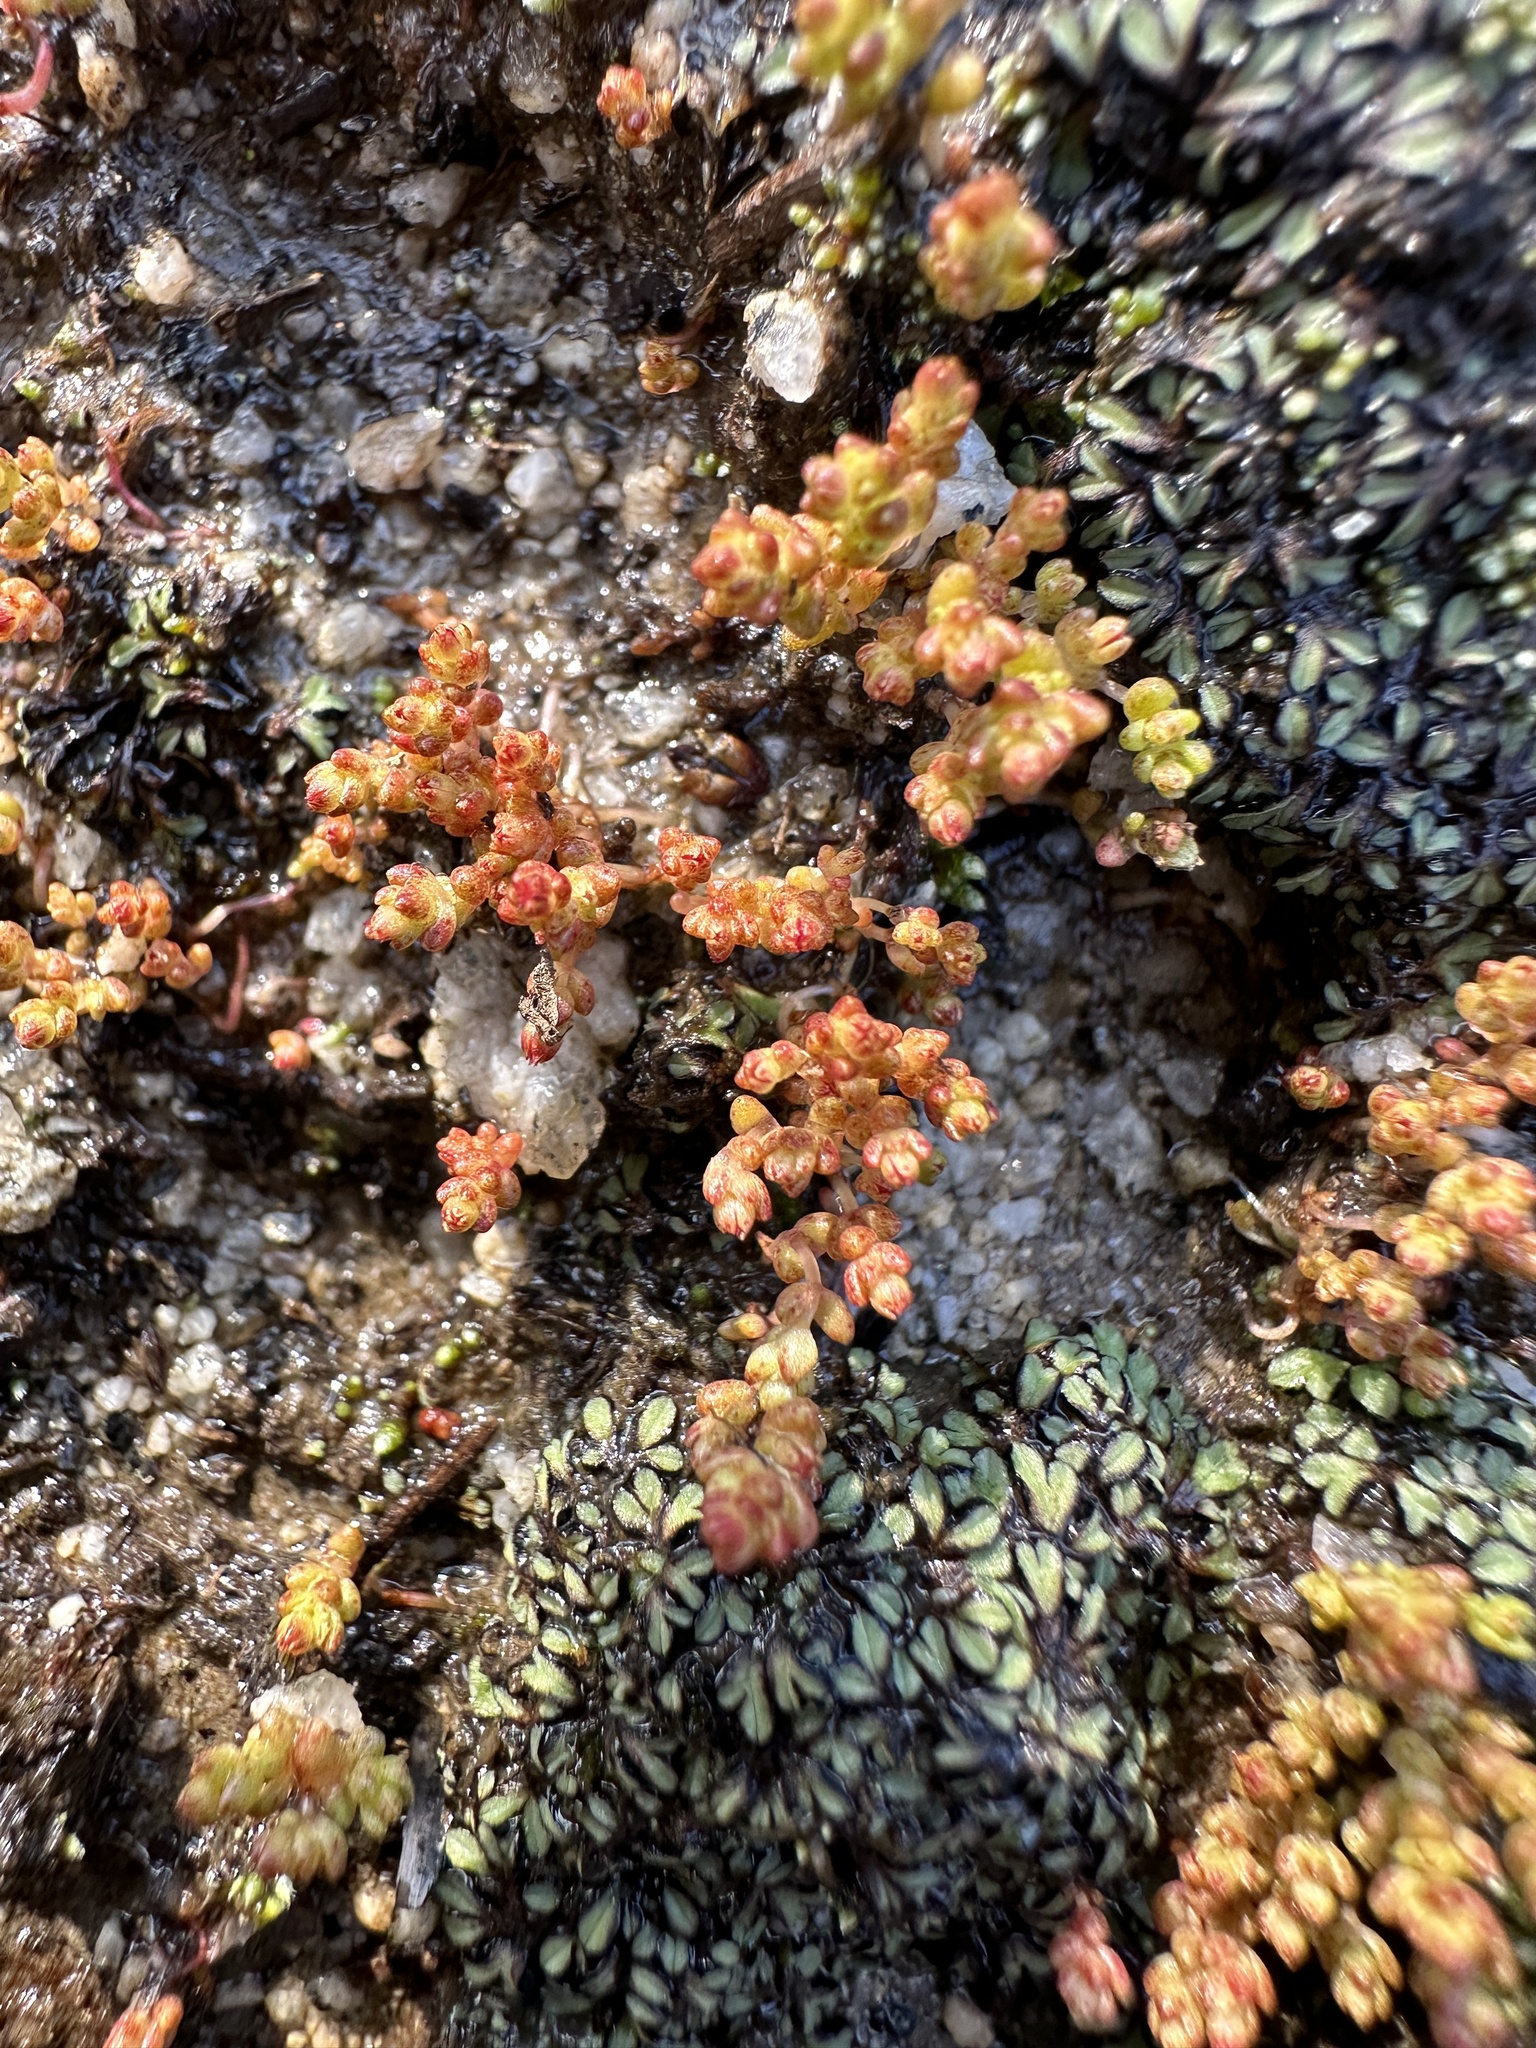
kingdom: Plantae
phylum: Tracheophyta
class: Magnoliopsida
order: Saxifragales
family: Crassulaceae
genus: Crassula
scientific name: Crassula connata
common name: Erect pygmyweed
